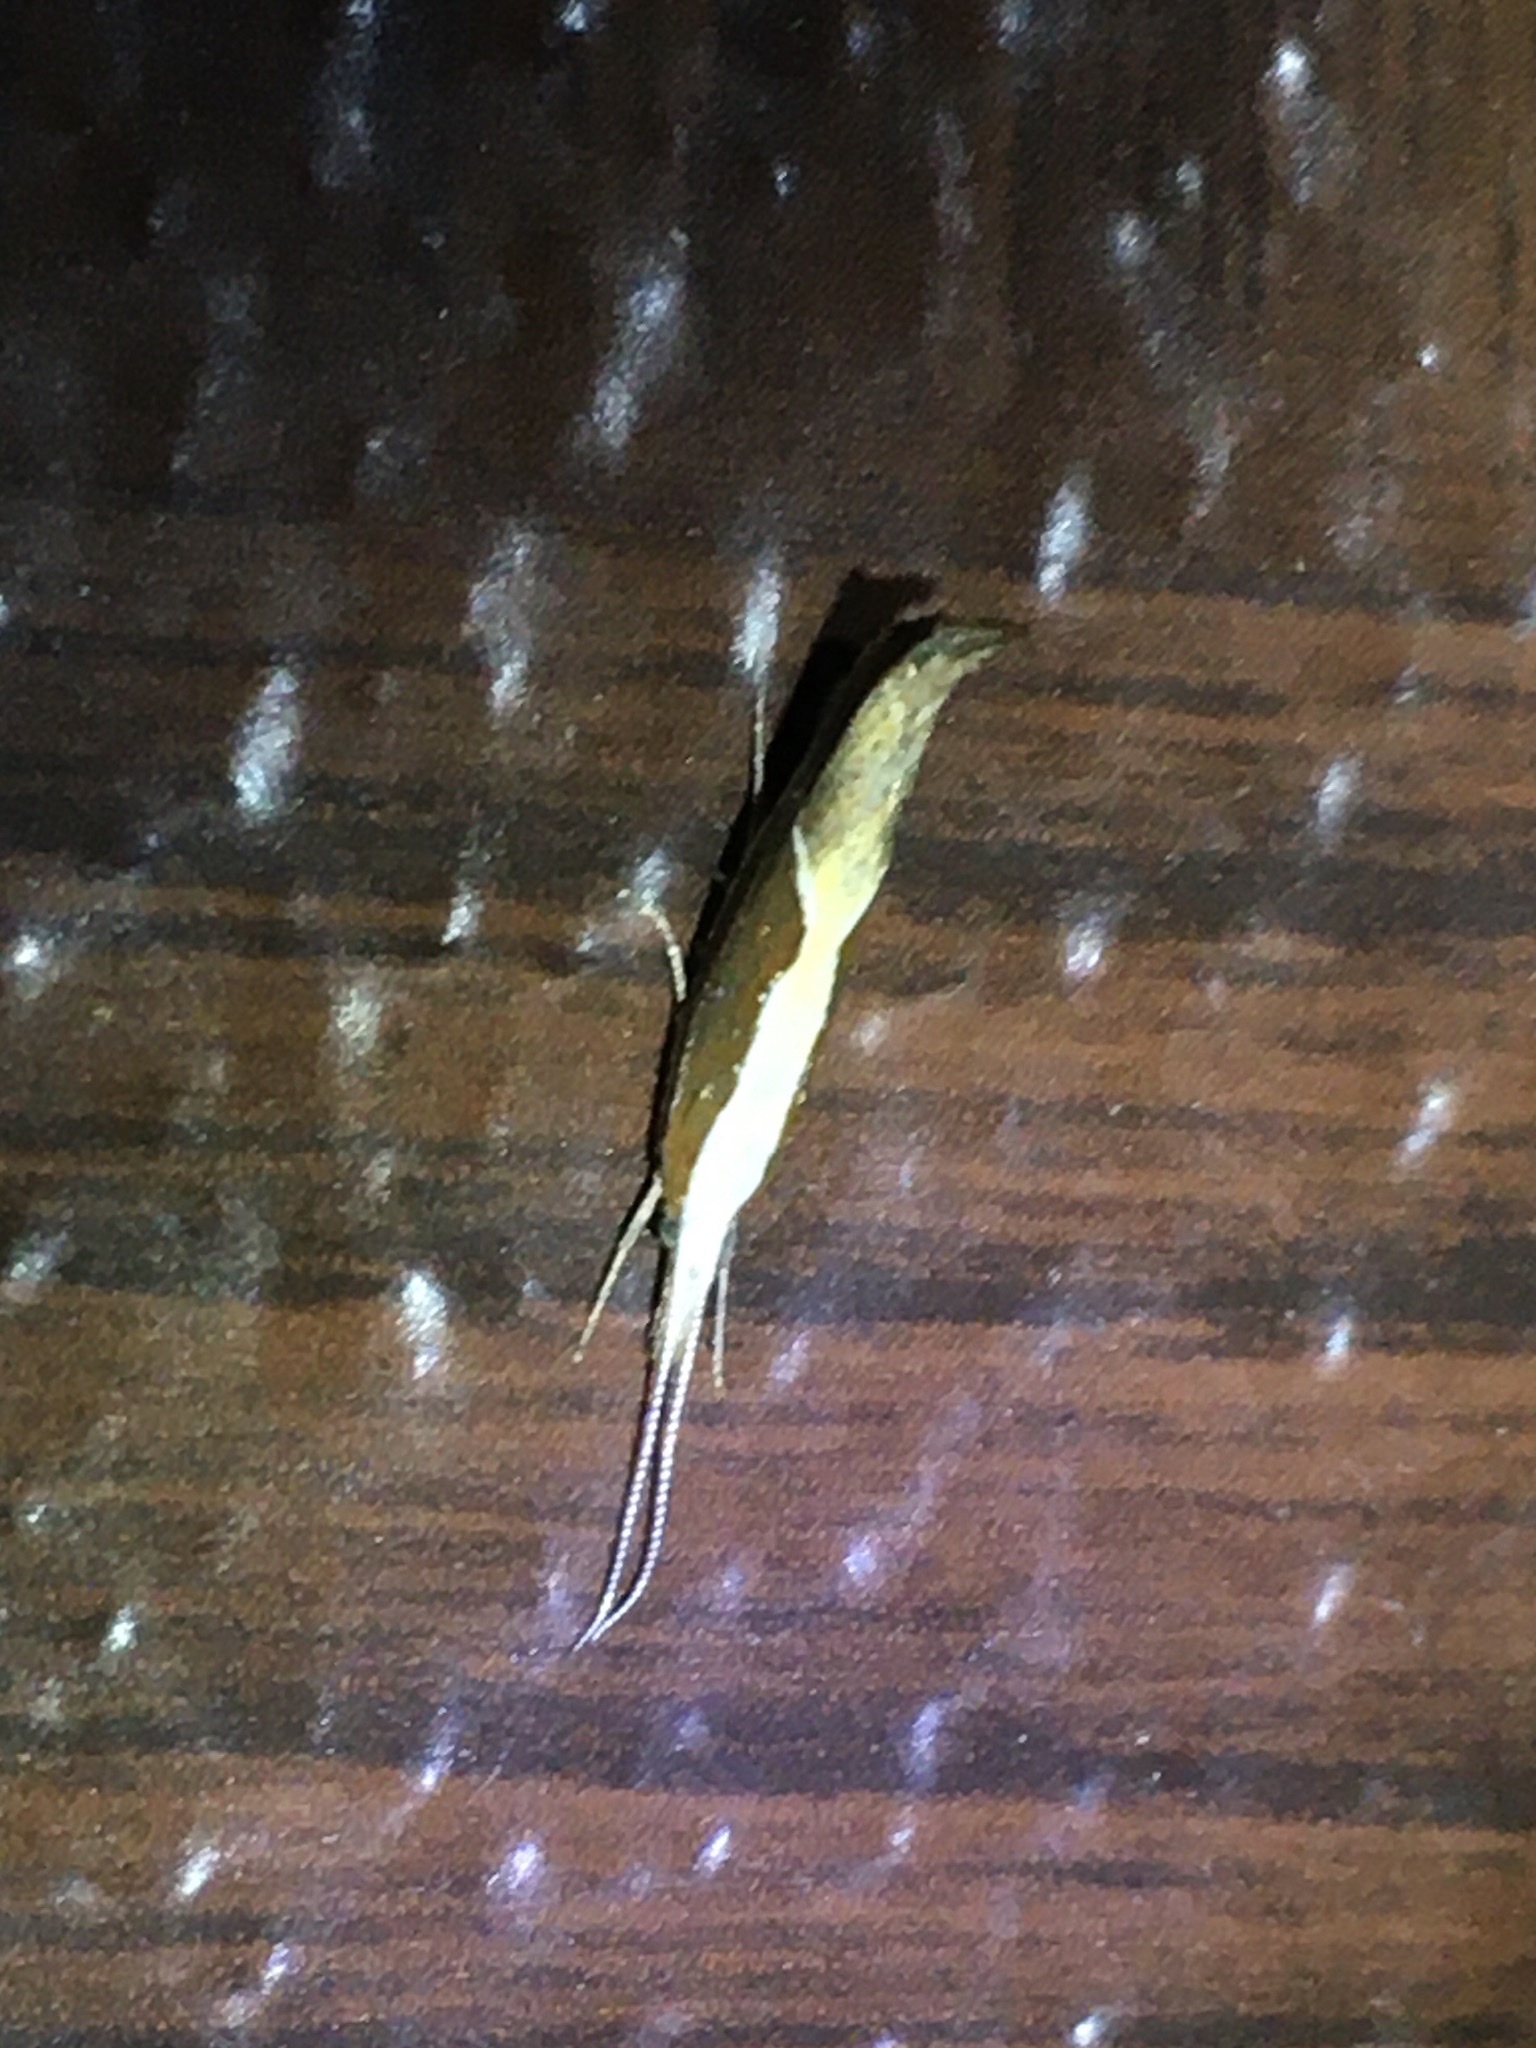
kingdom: Animalia
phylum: Arthropoda
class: Insecta
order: Lepidoptera
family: Ypsolophidae
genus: Ypsolopha
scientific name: Ypsolopha dentella
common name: Honeysuckle moth
